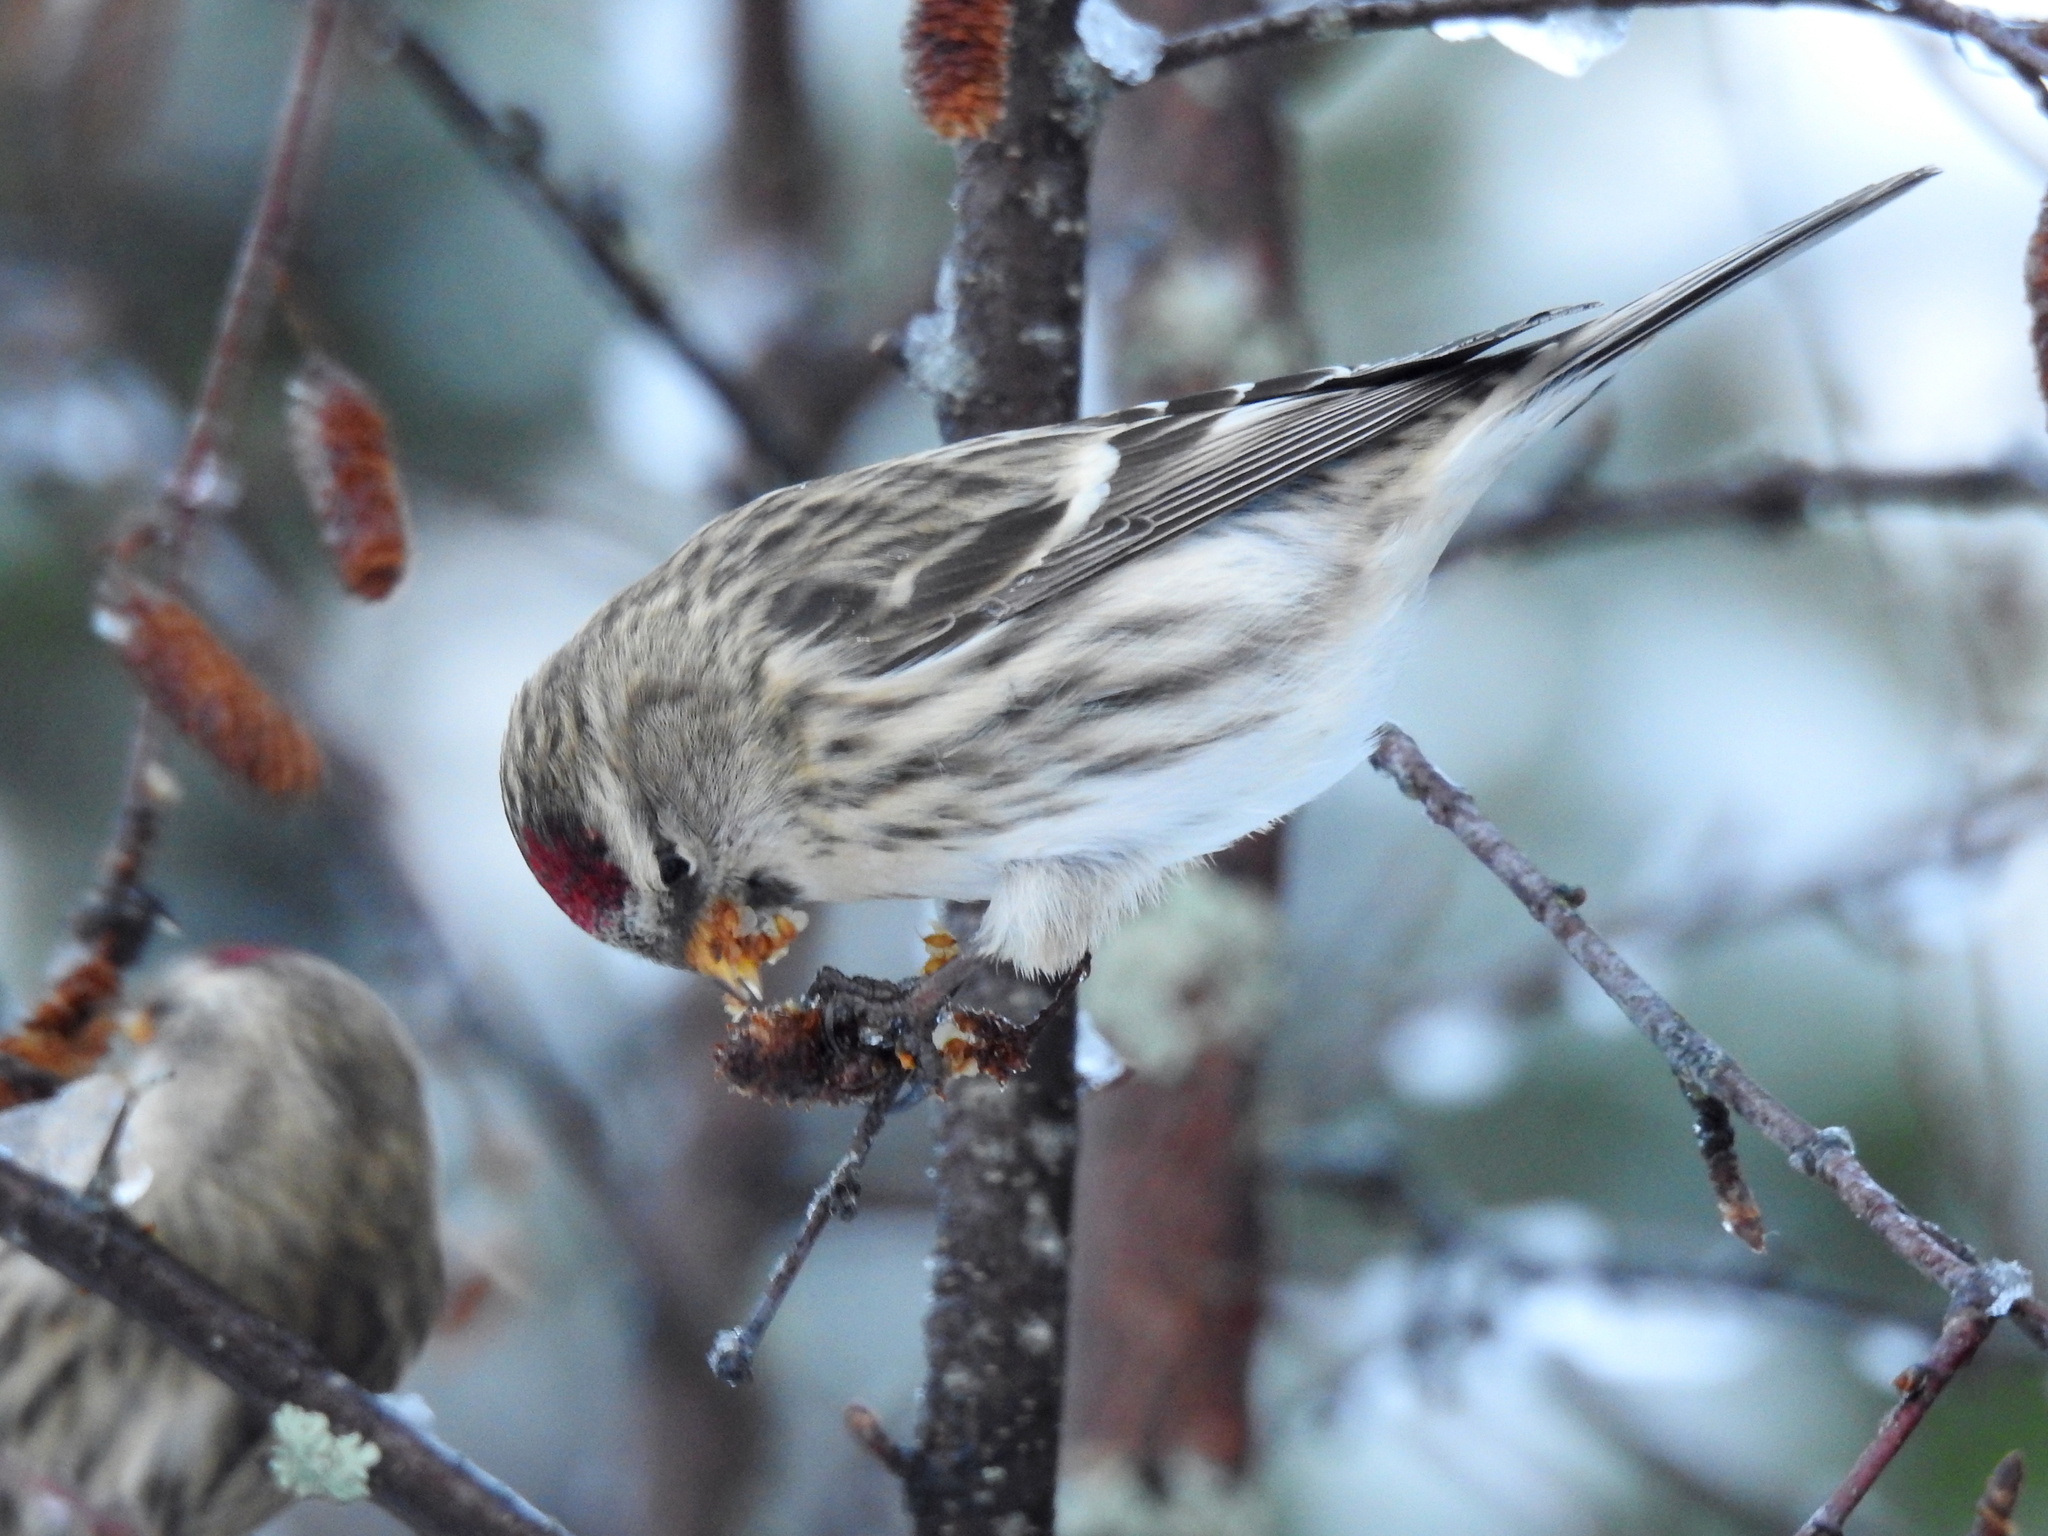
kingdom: Animalia
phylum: Chordata
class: Aves
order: Passeriformes
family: Fringillidae
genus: Acanthis
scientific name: Acanthis flammea
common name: Common redpoll
